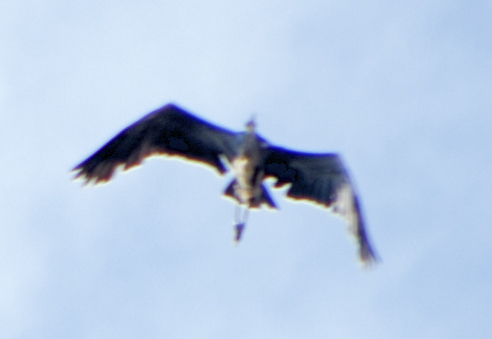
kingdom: Animalia
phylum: Chordata
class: Aves
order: Pelecaniformes
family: Ardeidae
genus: Ardea
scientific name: Ardea cinerea
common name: Grey heron
